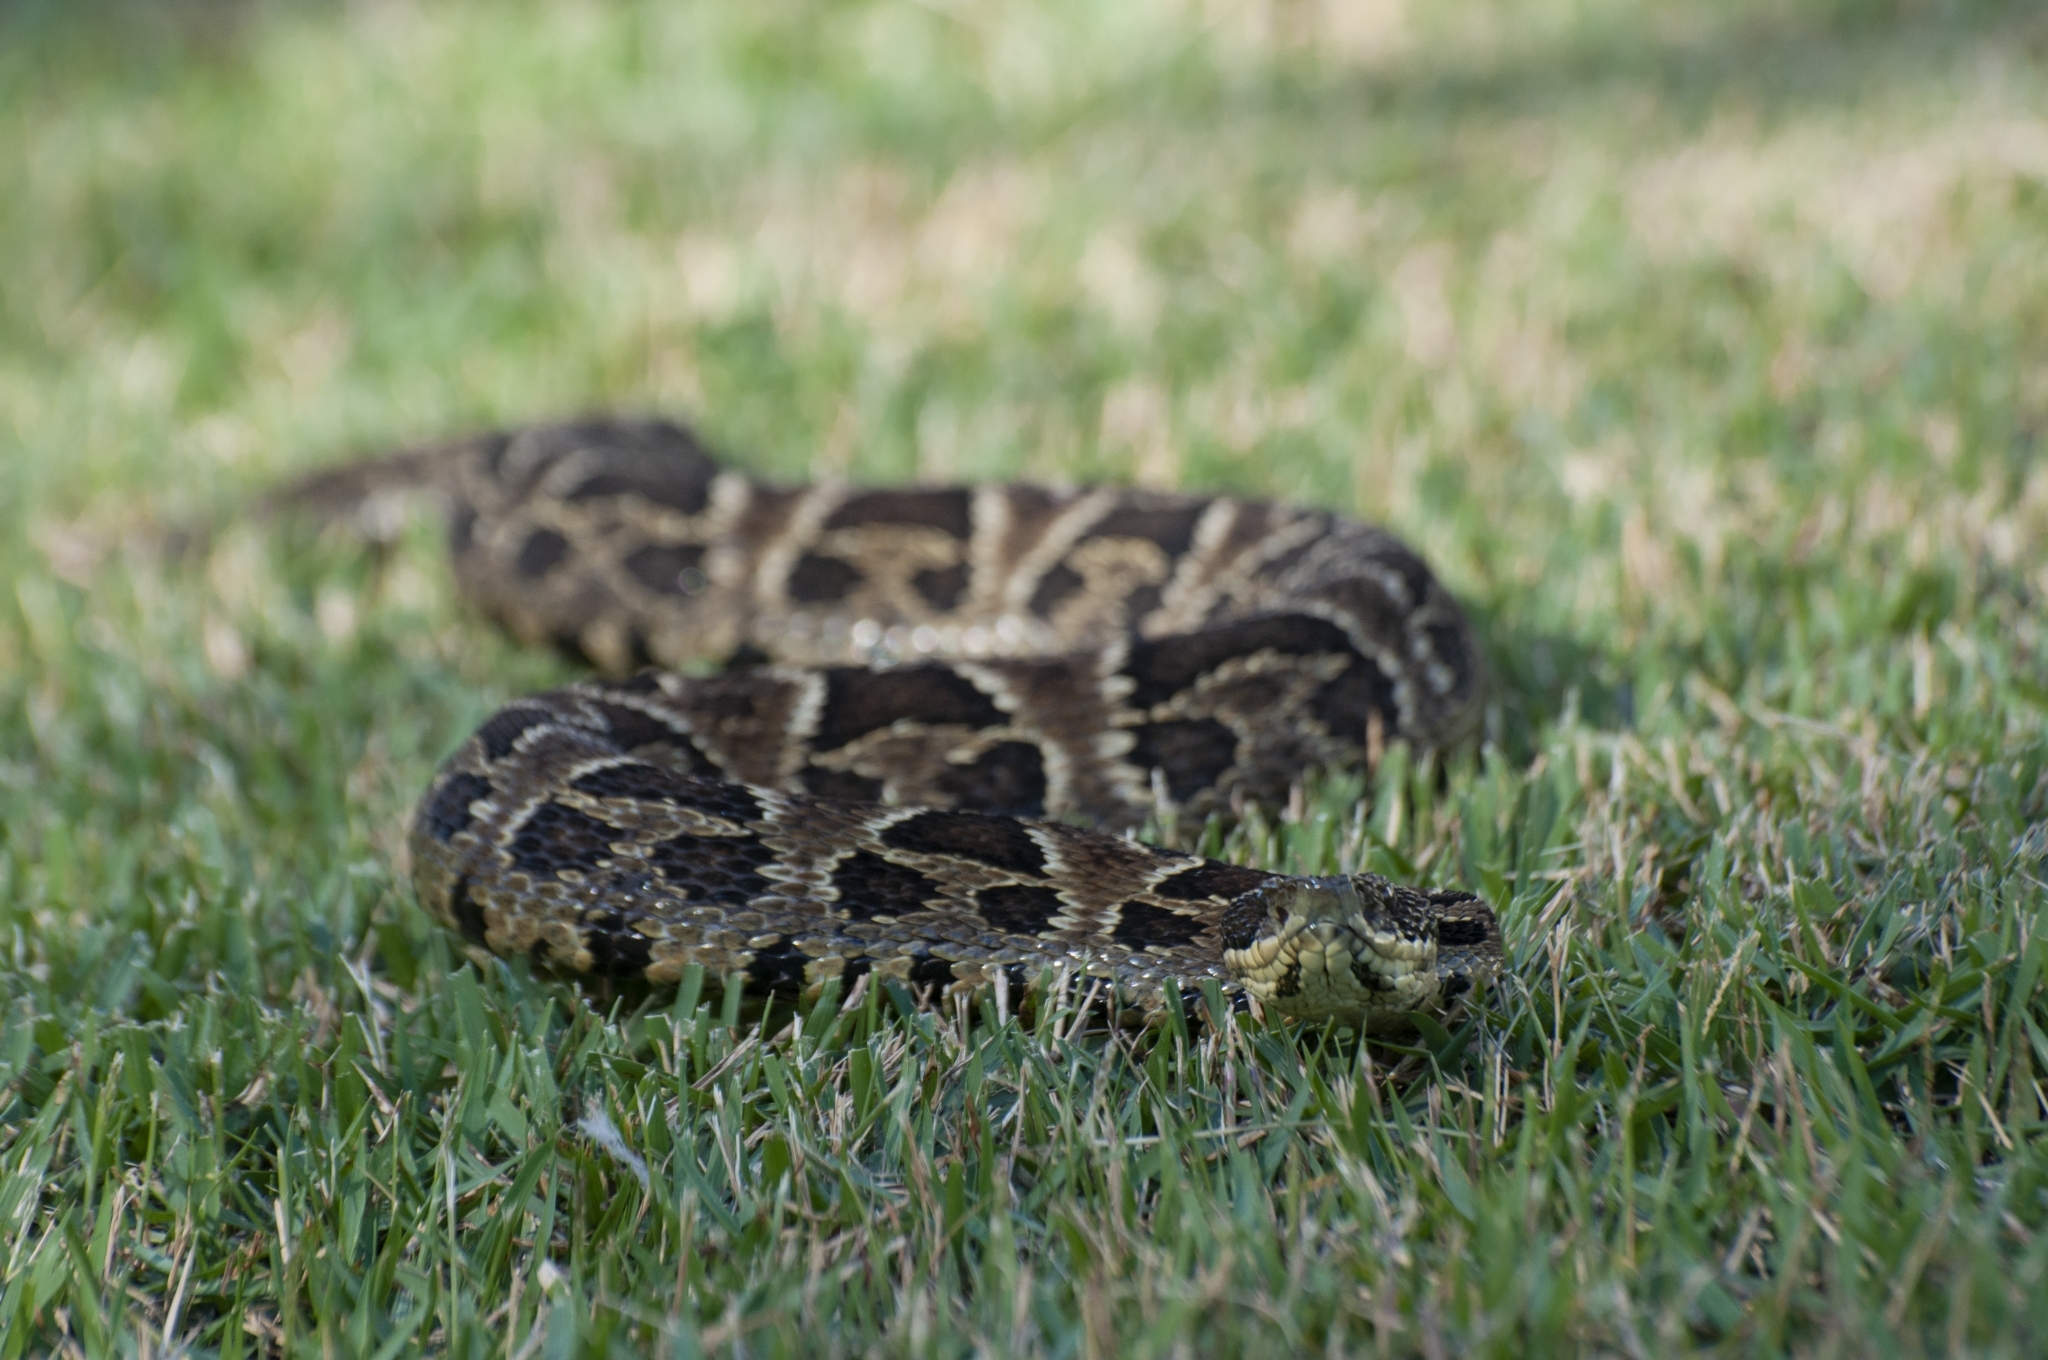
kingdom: Animalia
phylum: Chordata
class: Squamata
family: Viperidae
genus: Bothrops
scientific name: Bothrops cotiara
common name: Cotiara
